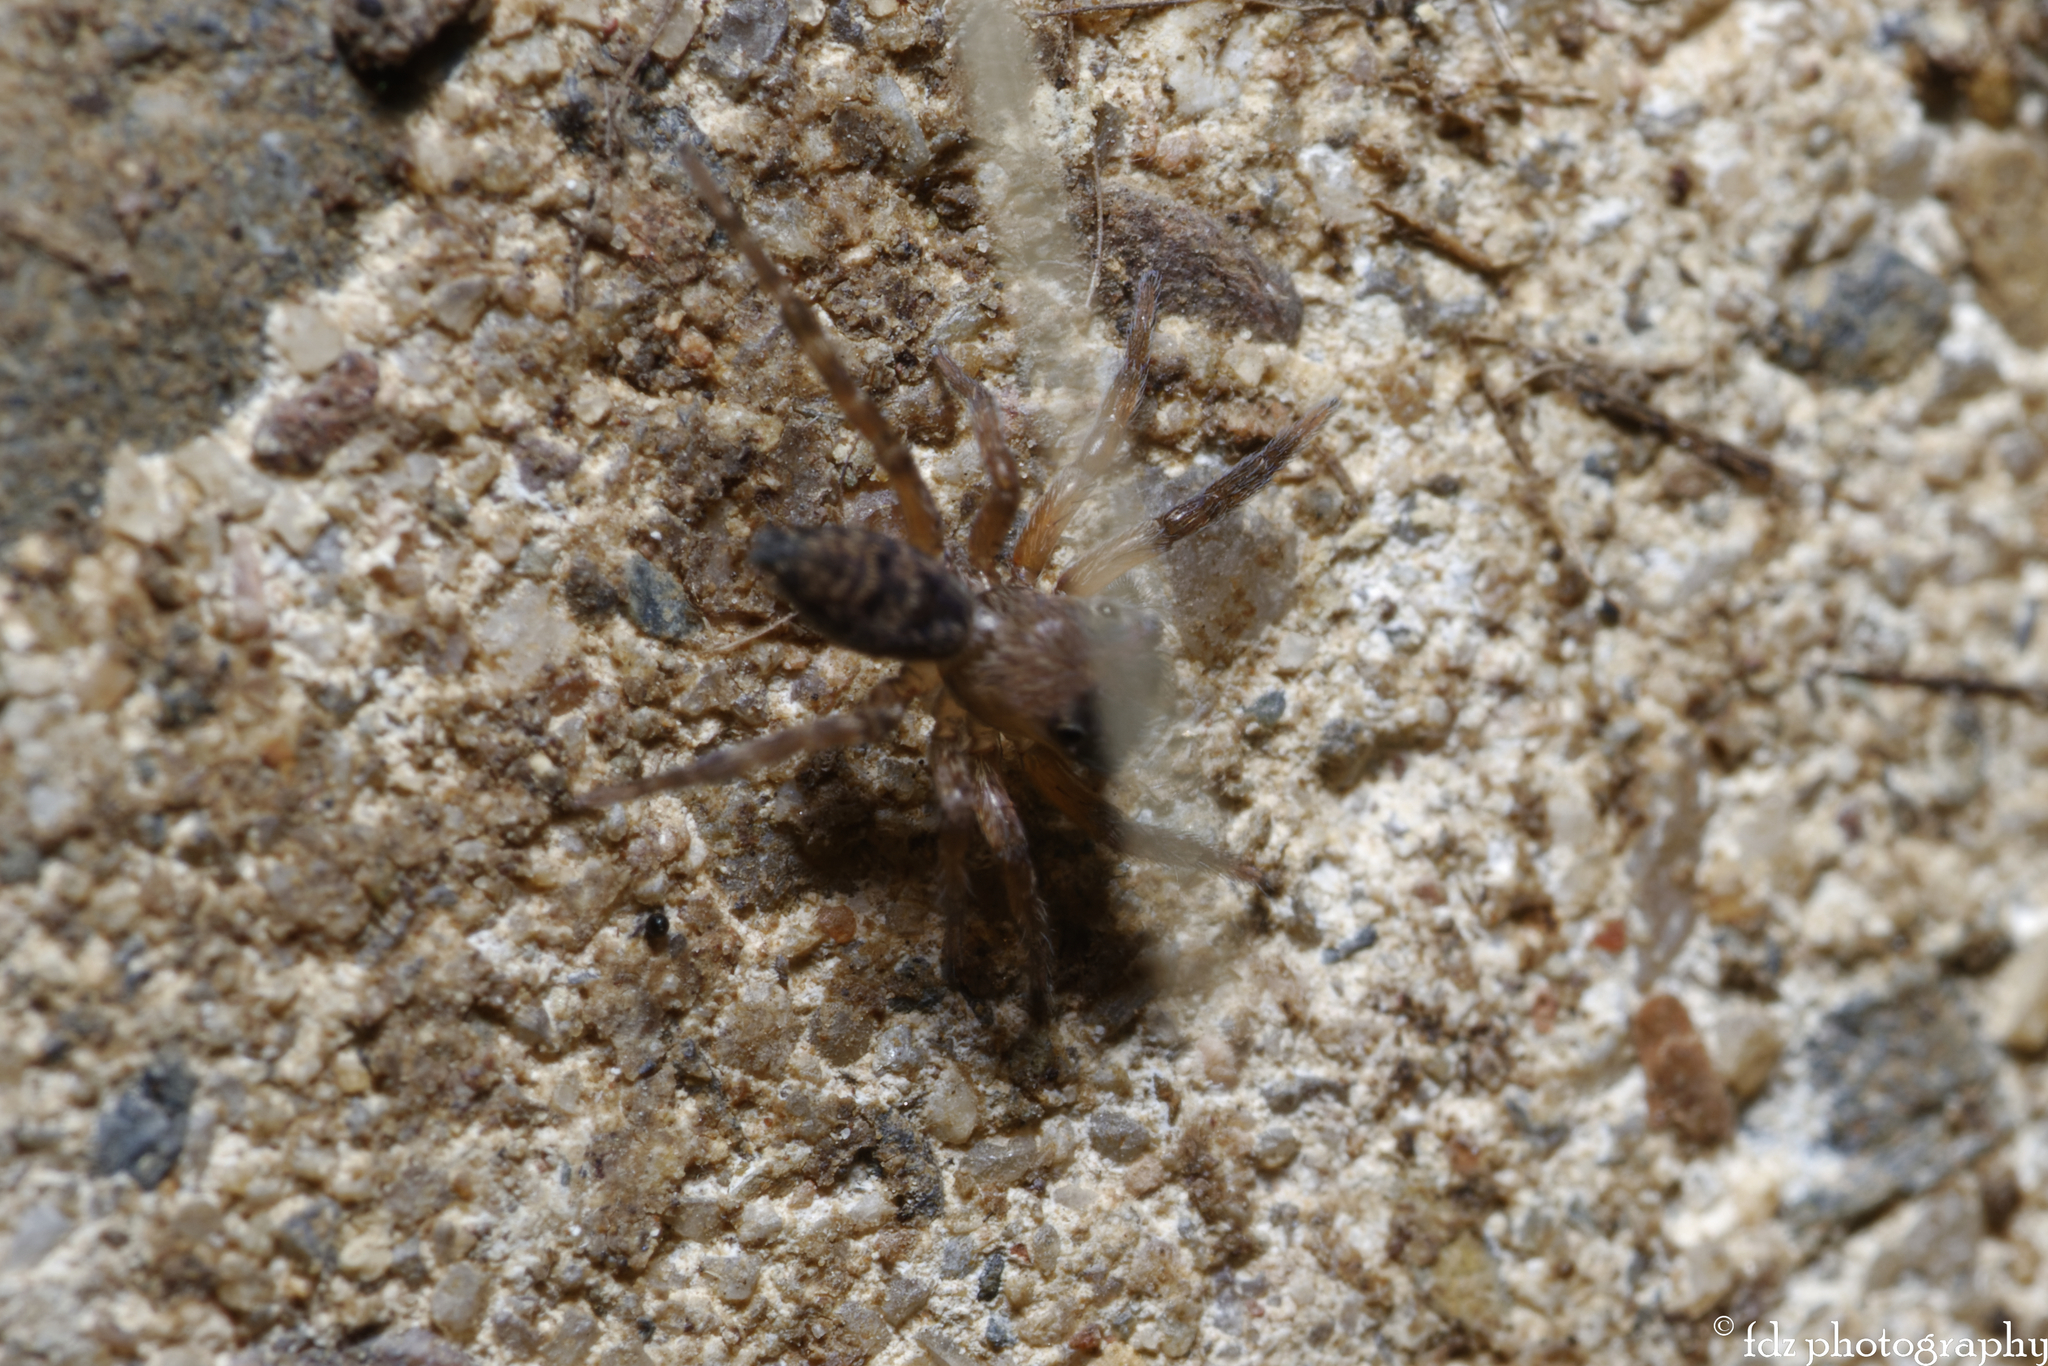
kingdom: Animalia
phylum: Arthropoda
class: Arachnida
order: Araneae
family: Salticidae
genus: Cyrba
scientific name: Cyrba algerina
